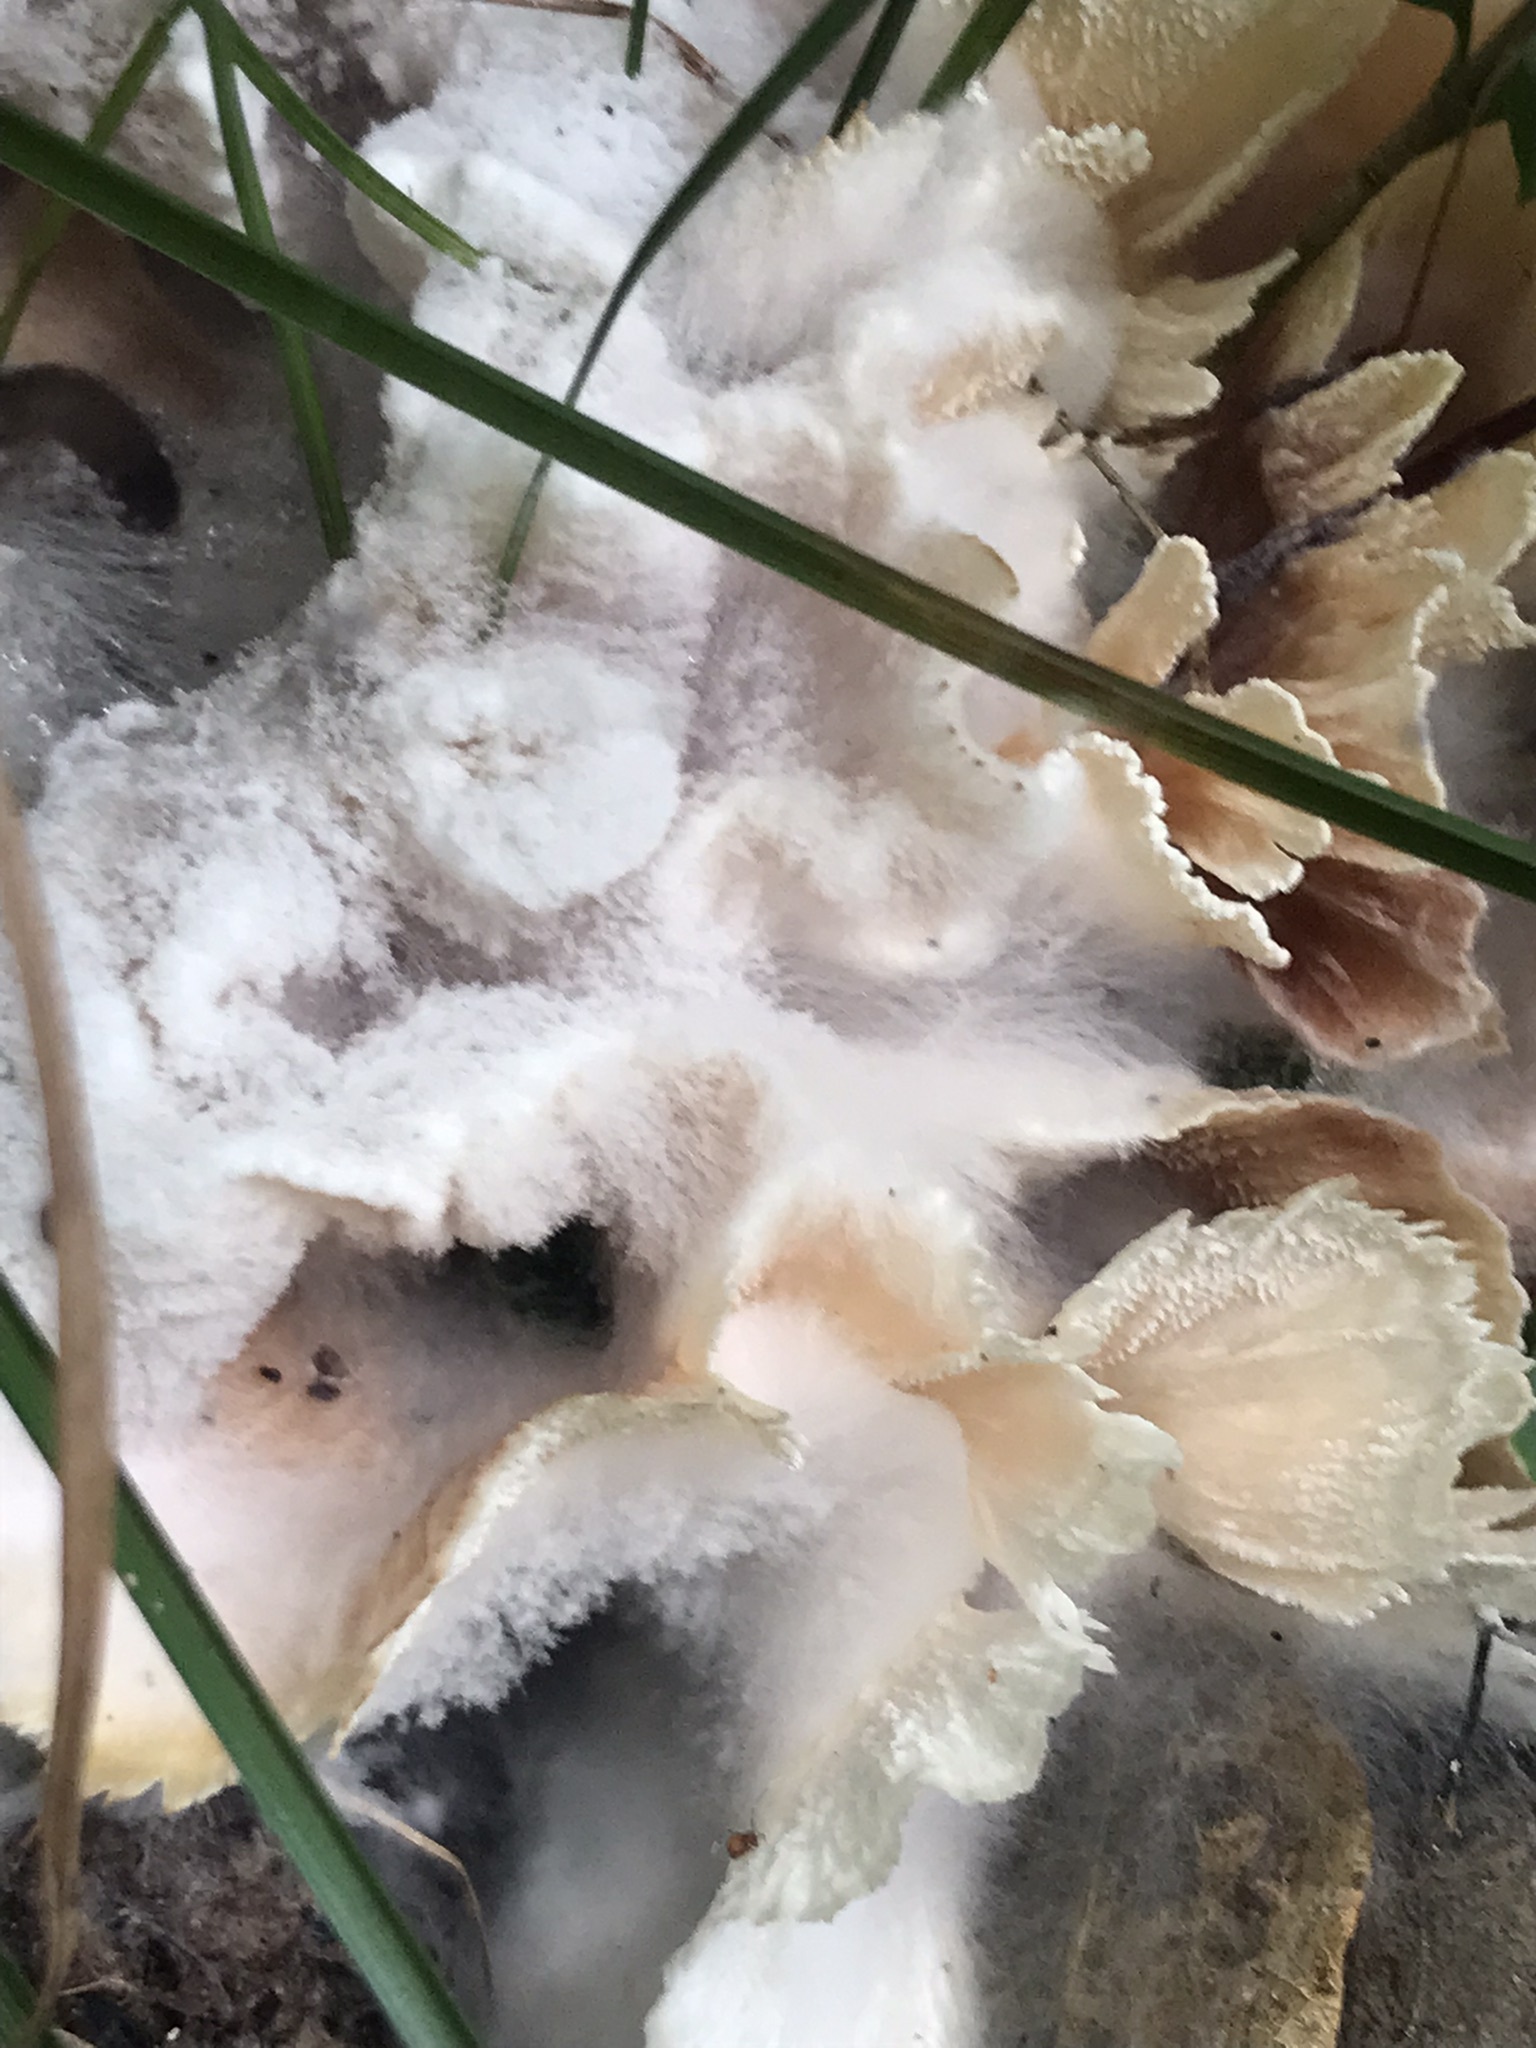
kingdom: Fungi
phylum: Basidiomycota
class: Agaricomycetes
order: Polyporales
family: Irpicaceae
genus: Irpex
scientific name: Irpex rosettiformis
